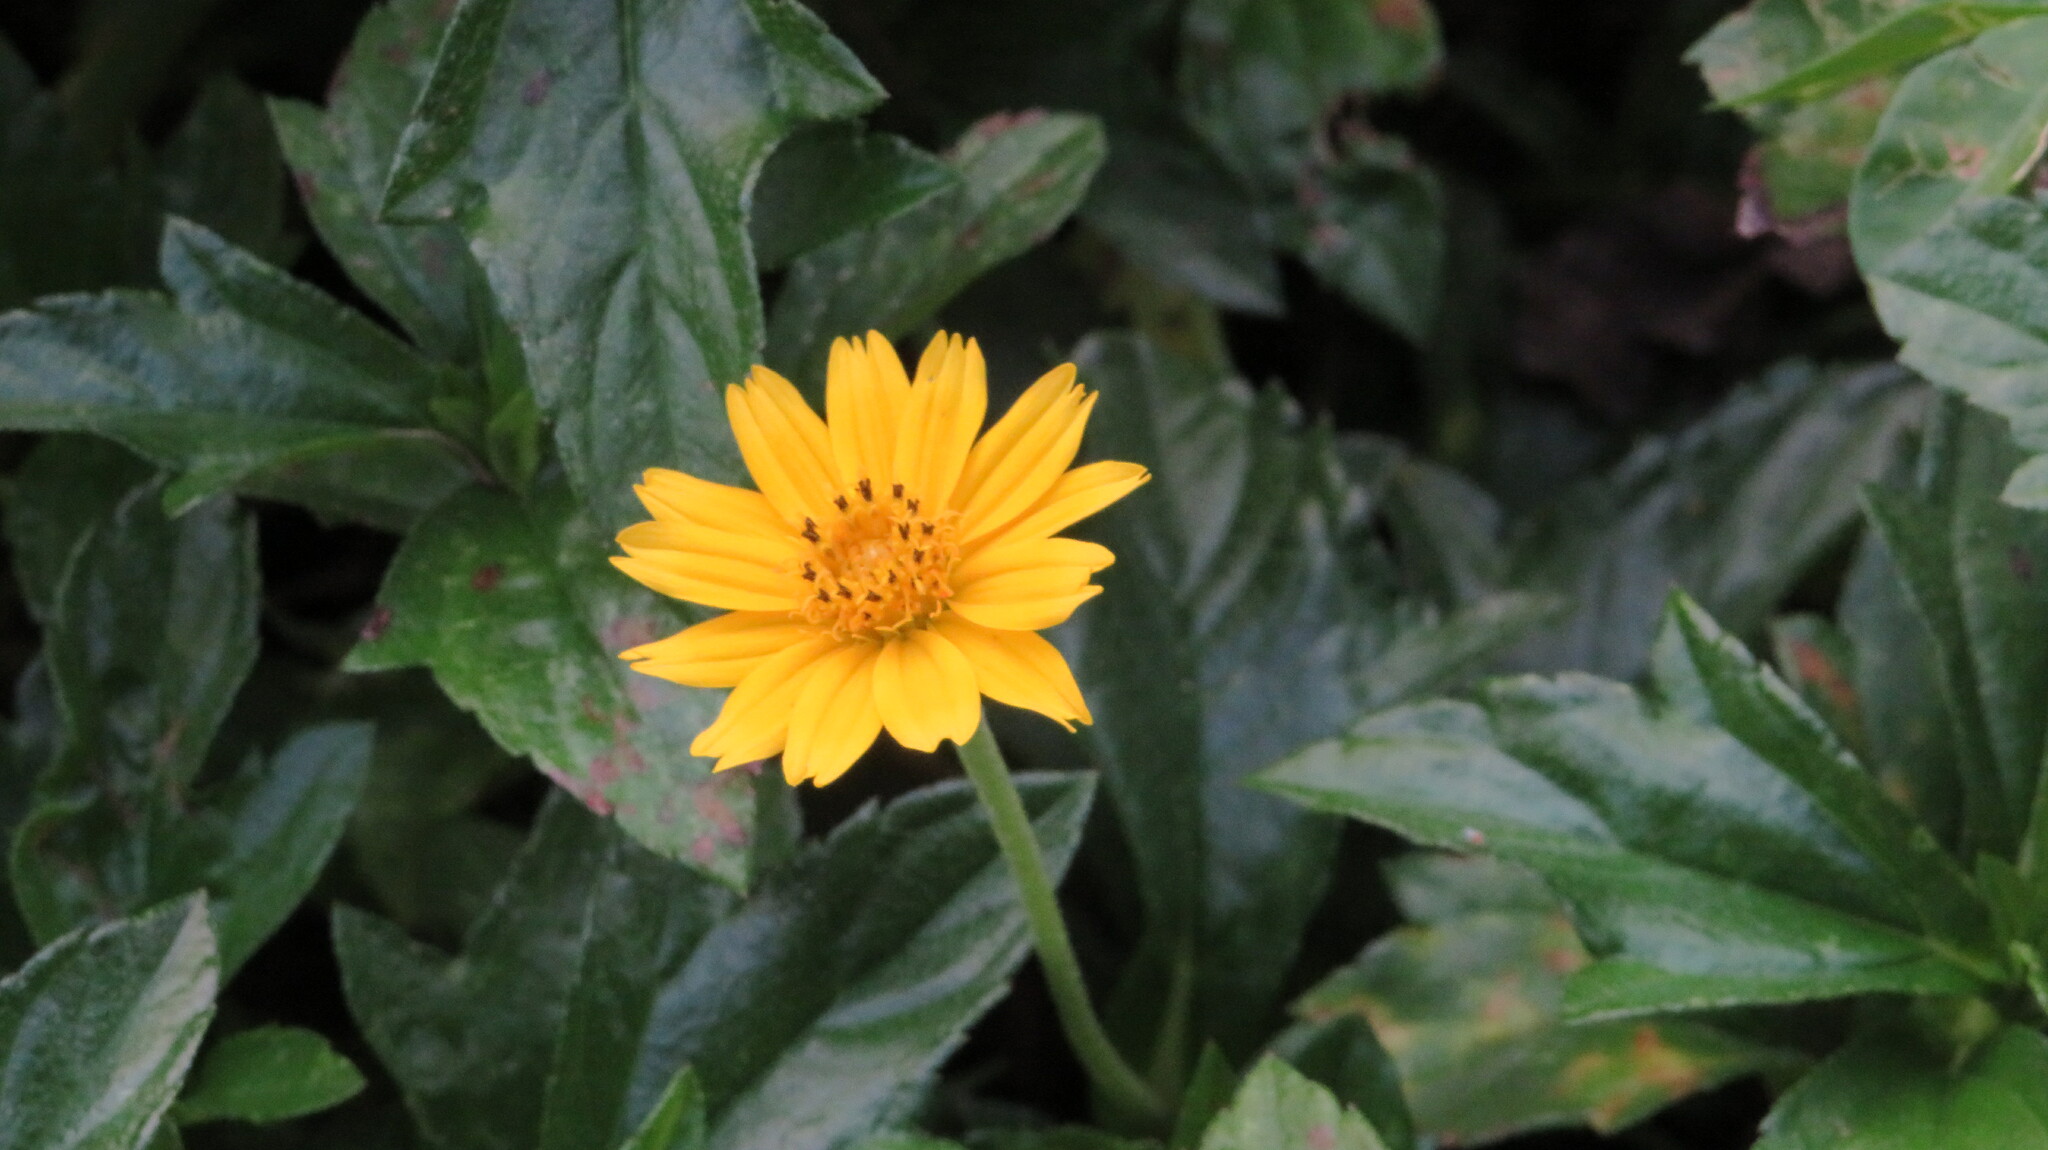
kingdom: Plantae
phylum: Tracheophyta
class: Magnoliopsida
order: Asterales
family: Asteraceae
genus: Sphagneticola
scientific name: Sphagneticola trilobata
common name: Bay biscayne creeping-oxeye
